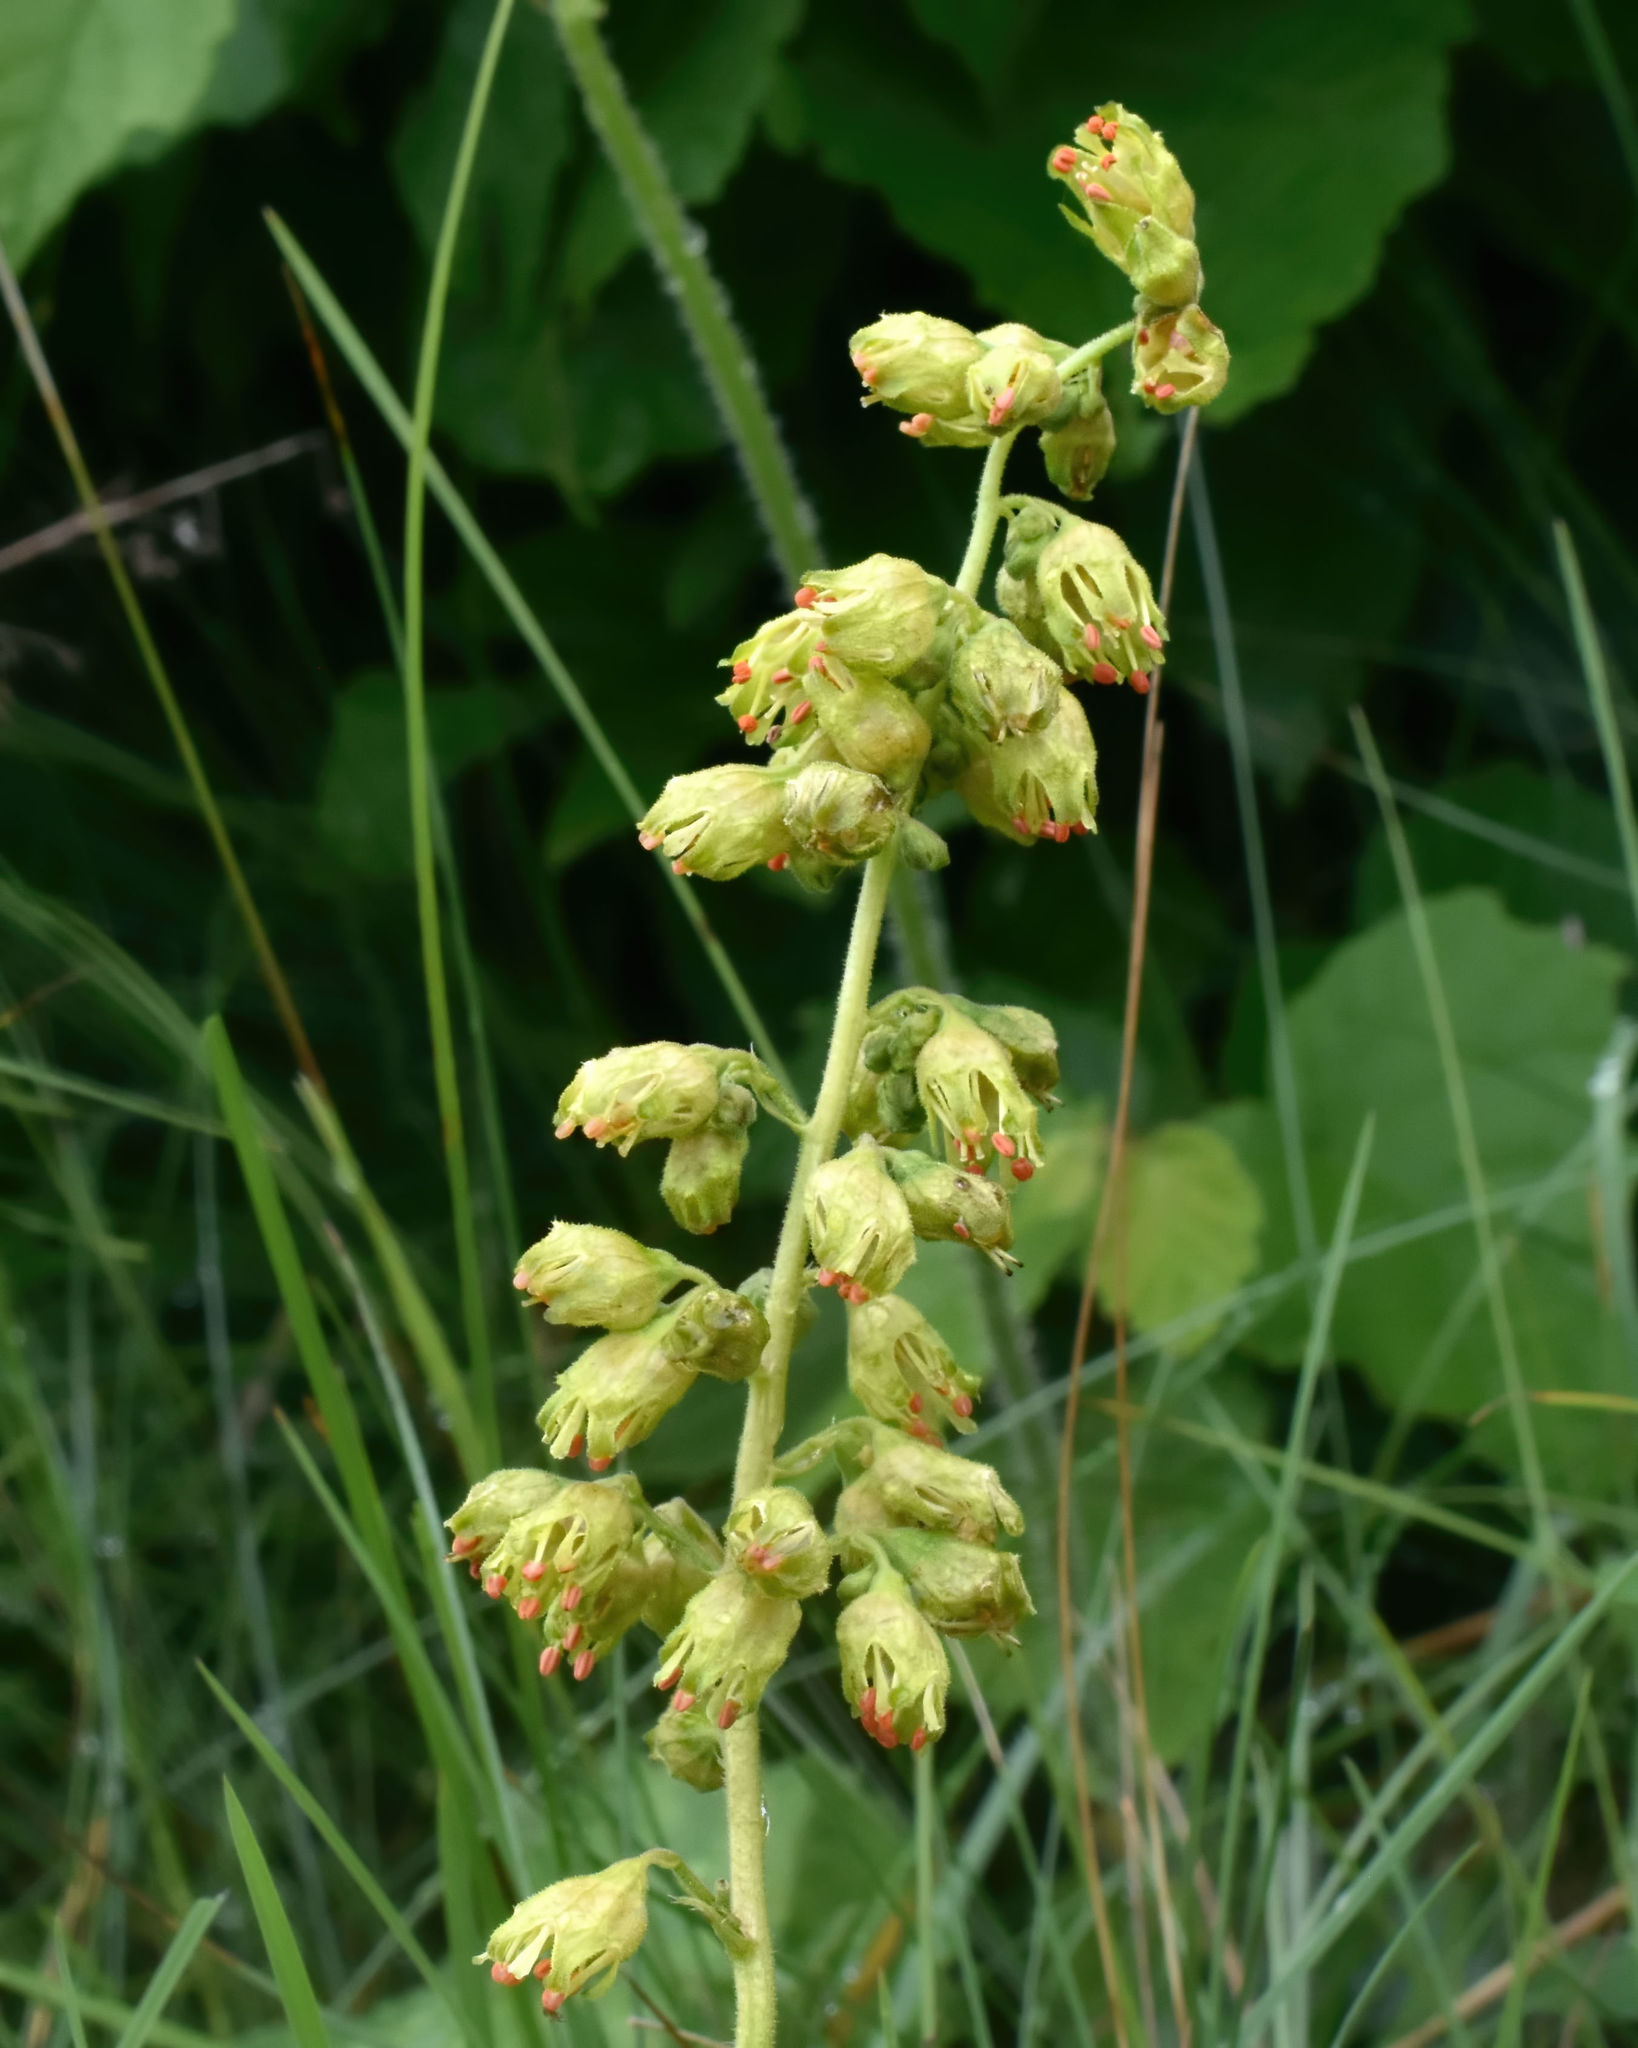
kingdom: Plantae
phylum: Tracheophyta
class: Magnoliopsida
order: Saxifragales
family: Saxifragaceae
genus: Heuchera
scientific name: Heuchera richardsonii
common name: Richardson's alumroot
